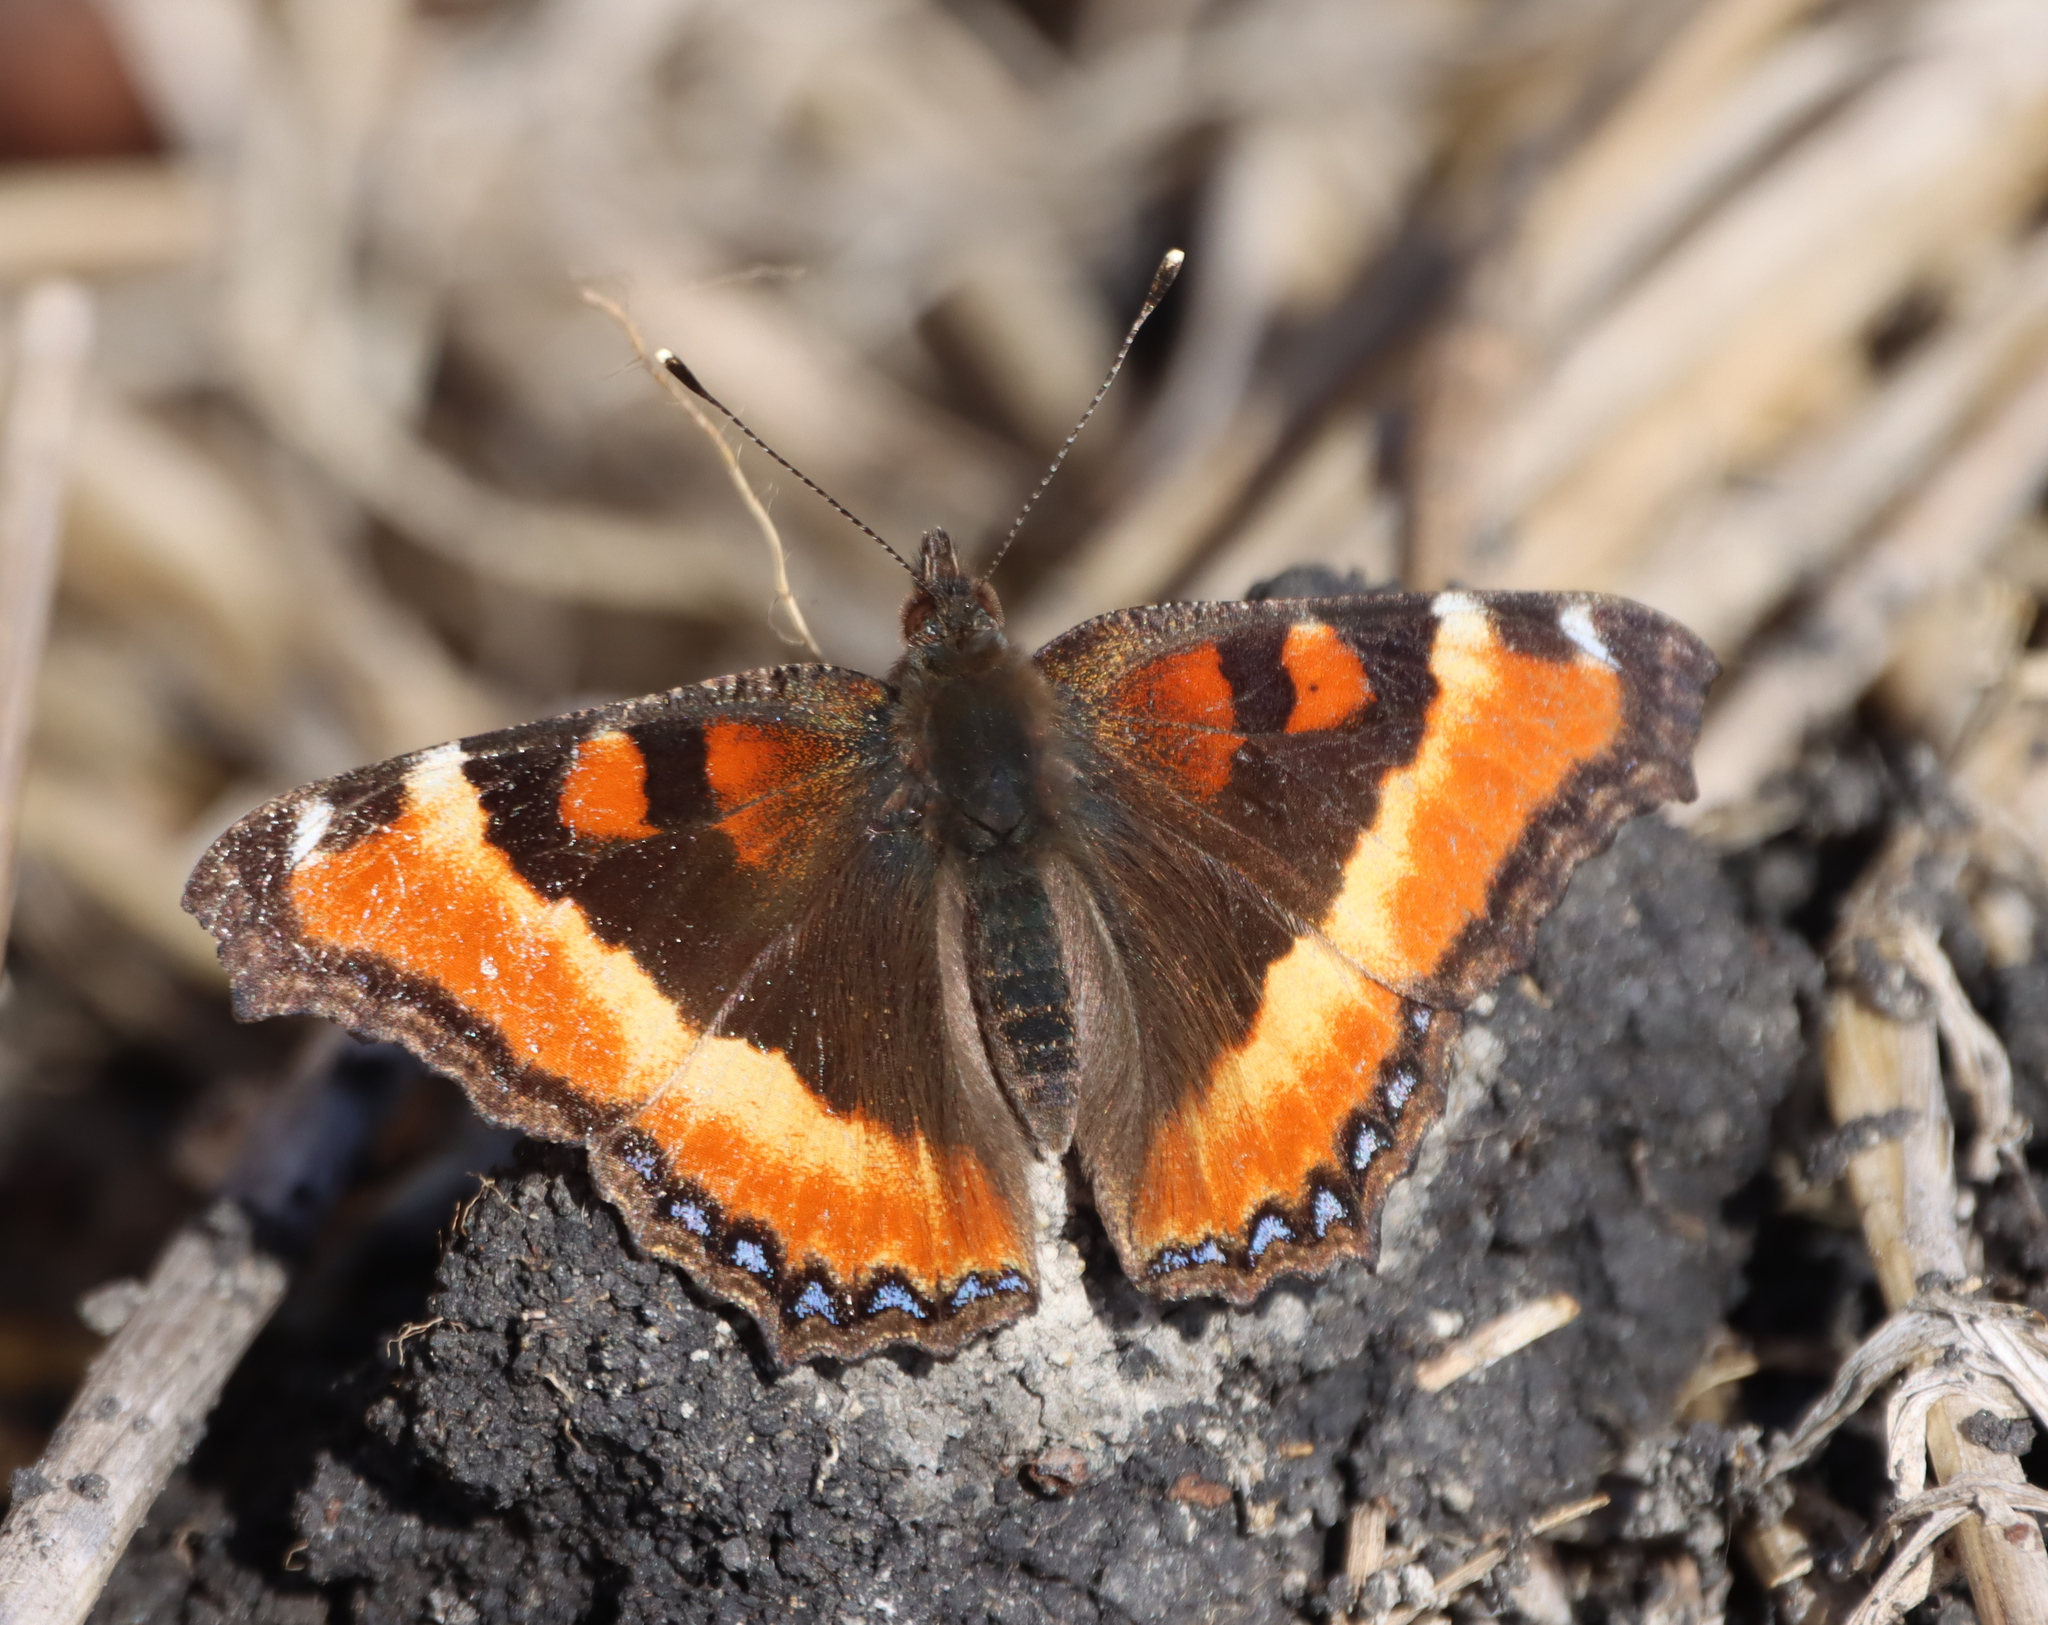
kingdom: Animalia
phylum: Arthropoda
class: Insecta
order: Lepidoptera
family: Nymphalidae
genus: Aglais
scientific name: Aglais milberti
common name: Milbert's tortoiseshell
